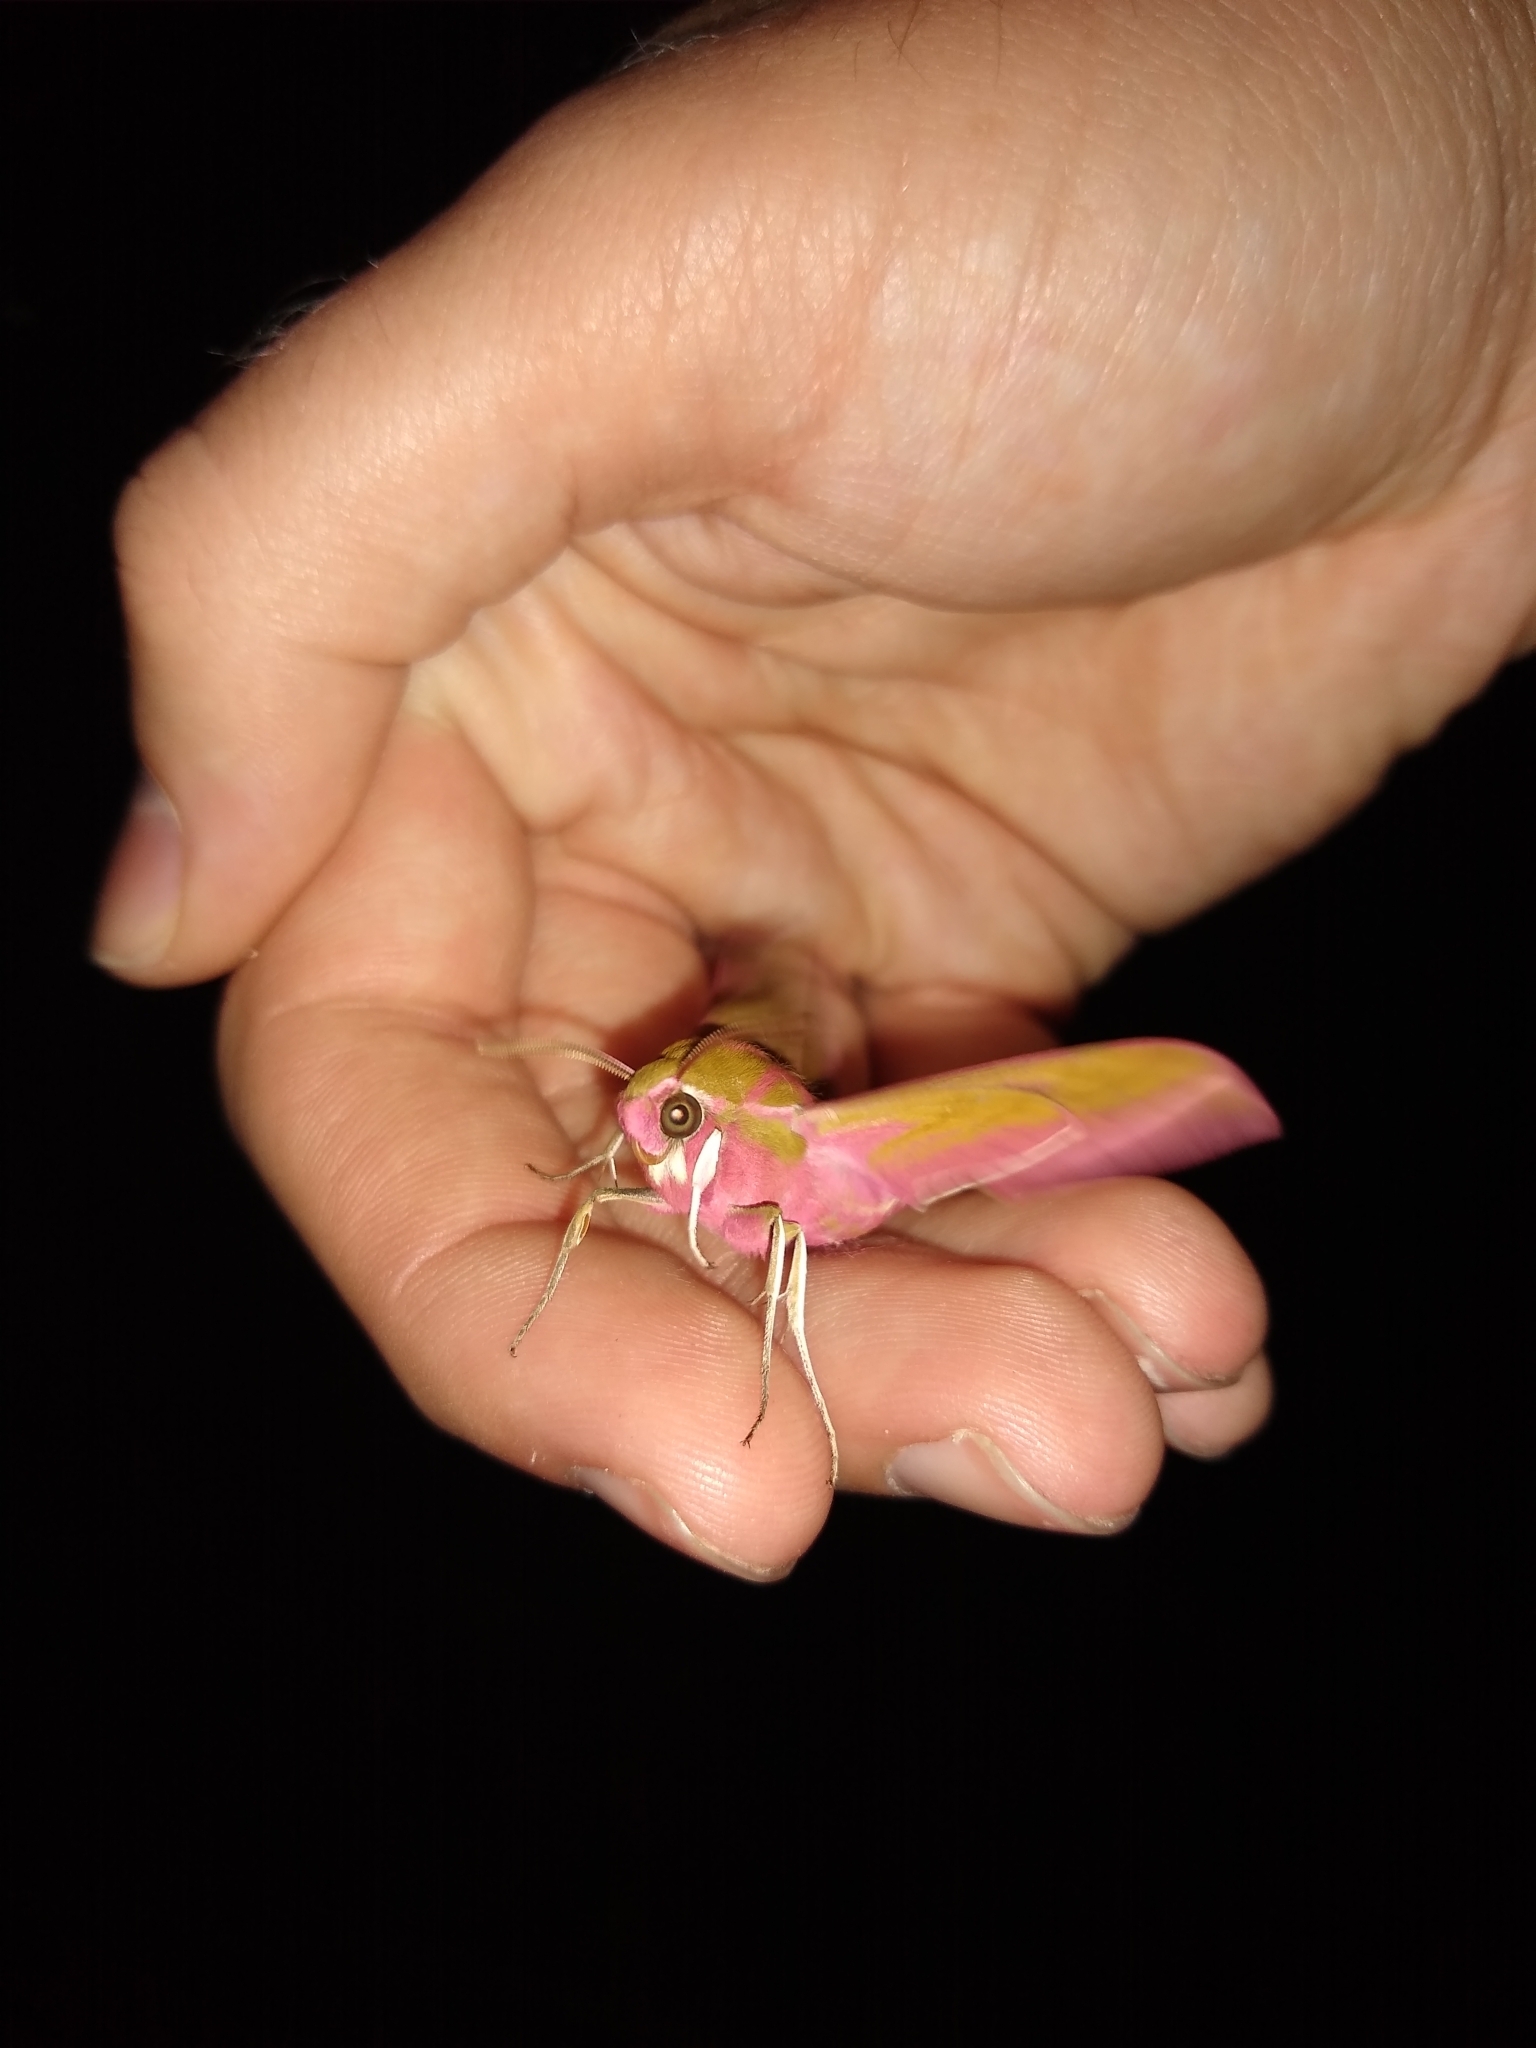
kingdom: Animalia
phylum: Arthropoda
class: Insecta
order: Lepidoptera
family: Sphingidae
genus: Deilephila
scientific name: Deilephila elpenor
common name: Elephant hawk-moth
